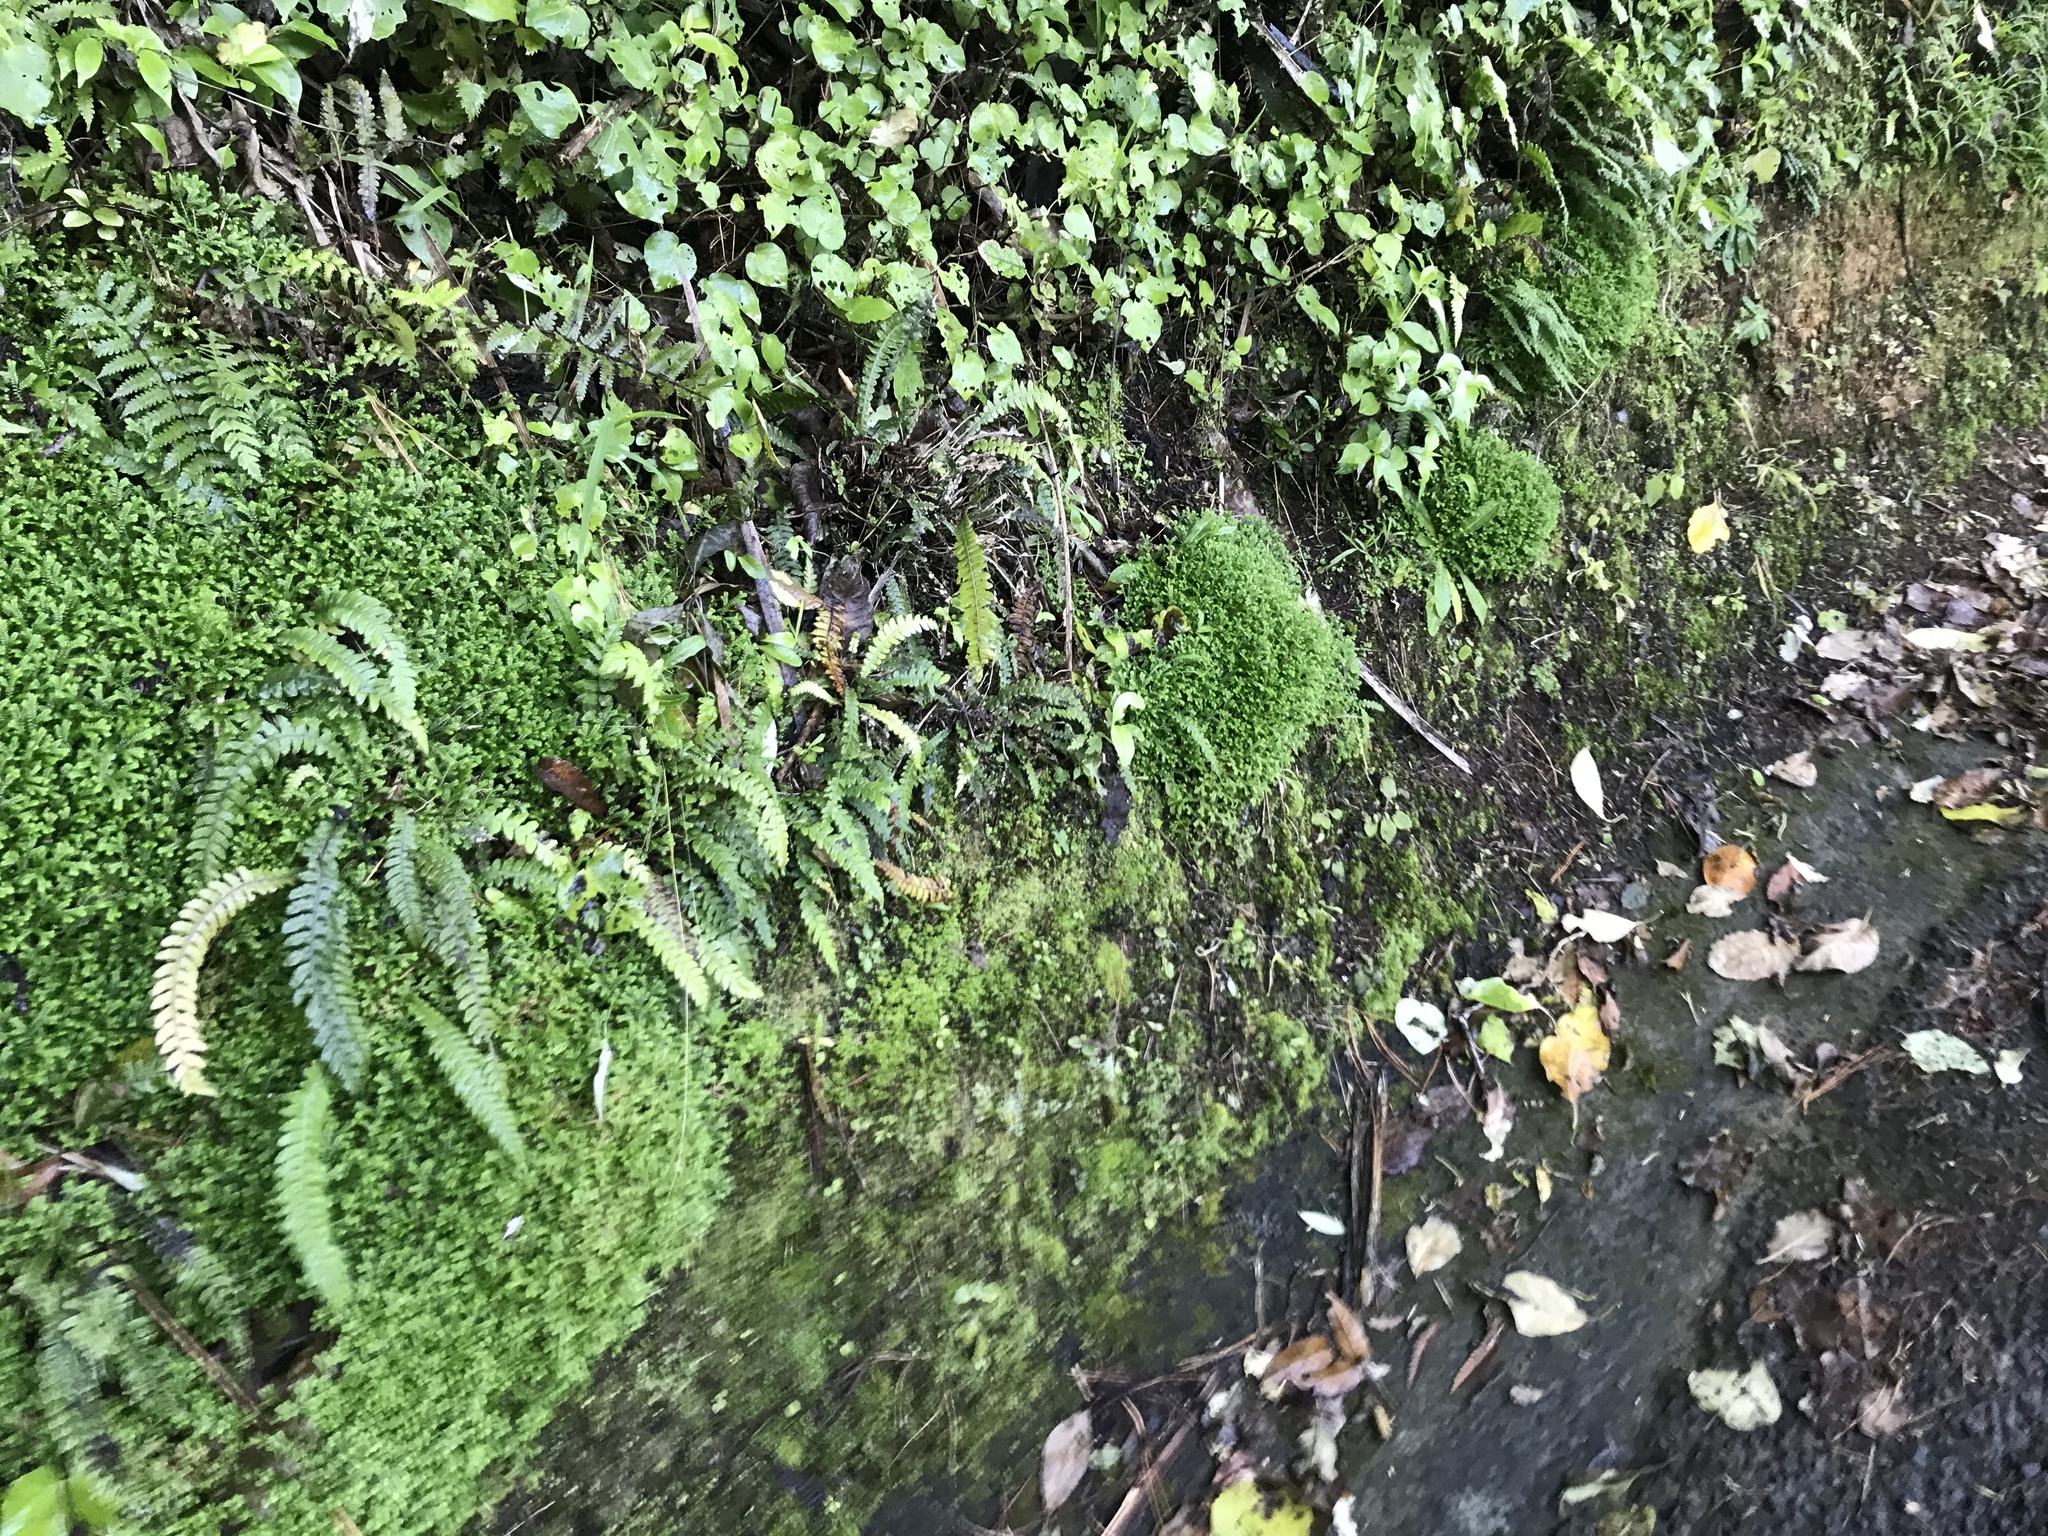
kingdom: Plantae
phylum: Tracheophyta
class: Lycopodiopsida
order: Selaginellales
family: Selaginellaceae
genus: Selaginella
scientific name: Selaginella kraussiana
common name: Krauss' spikemoss
